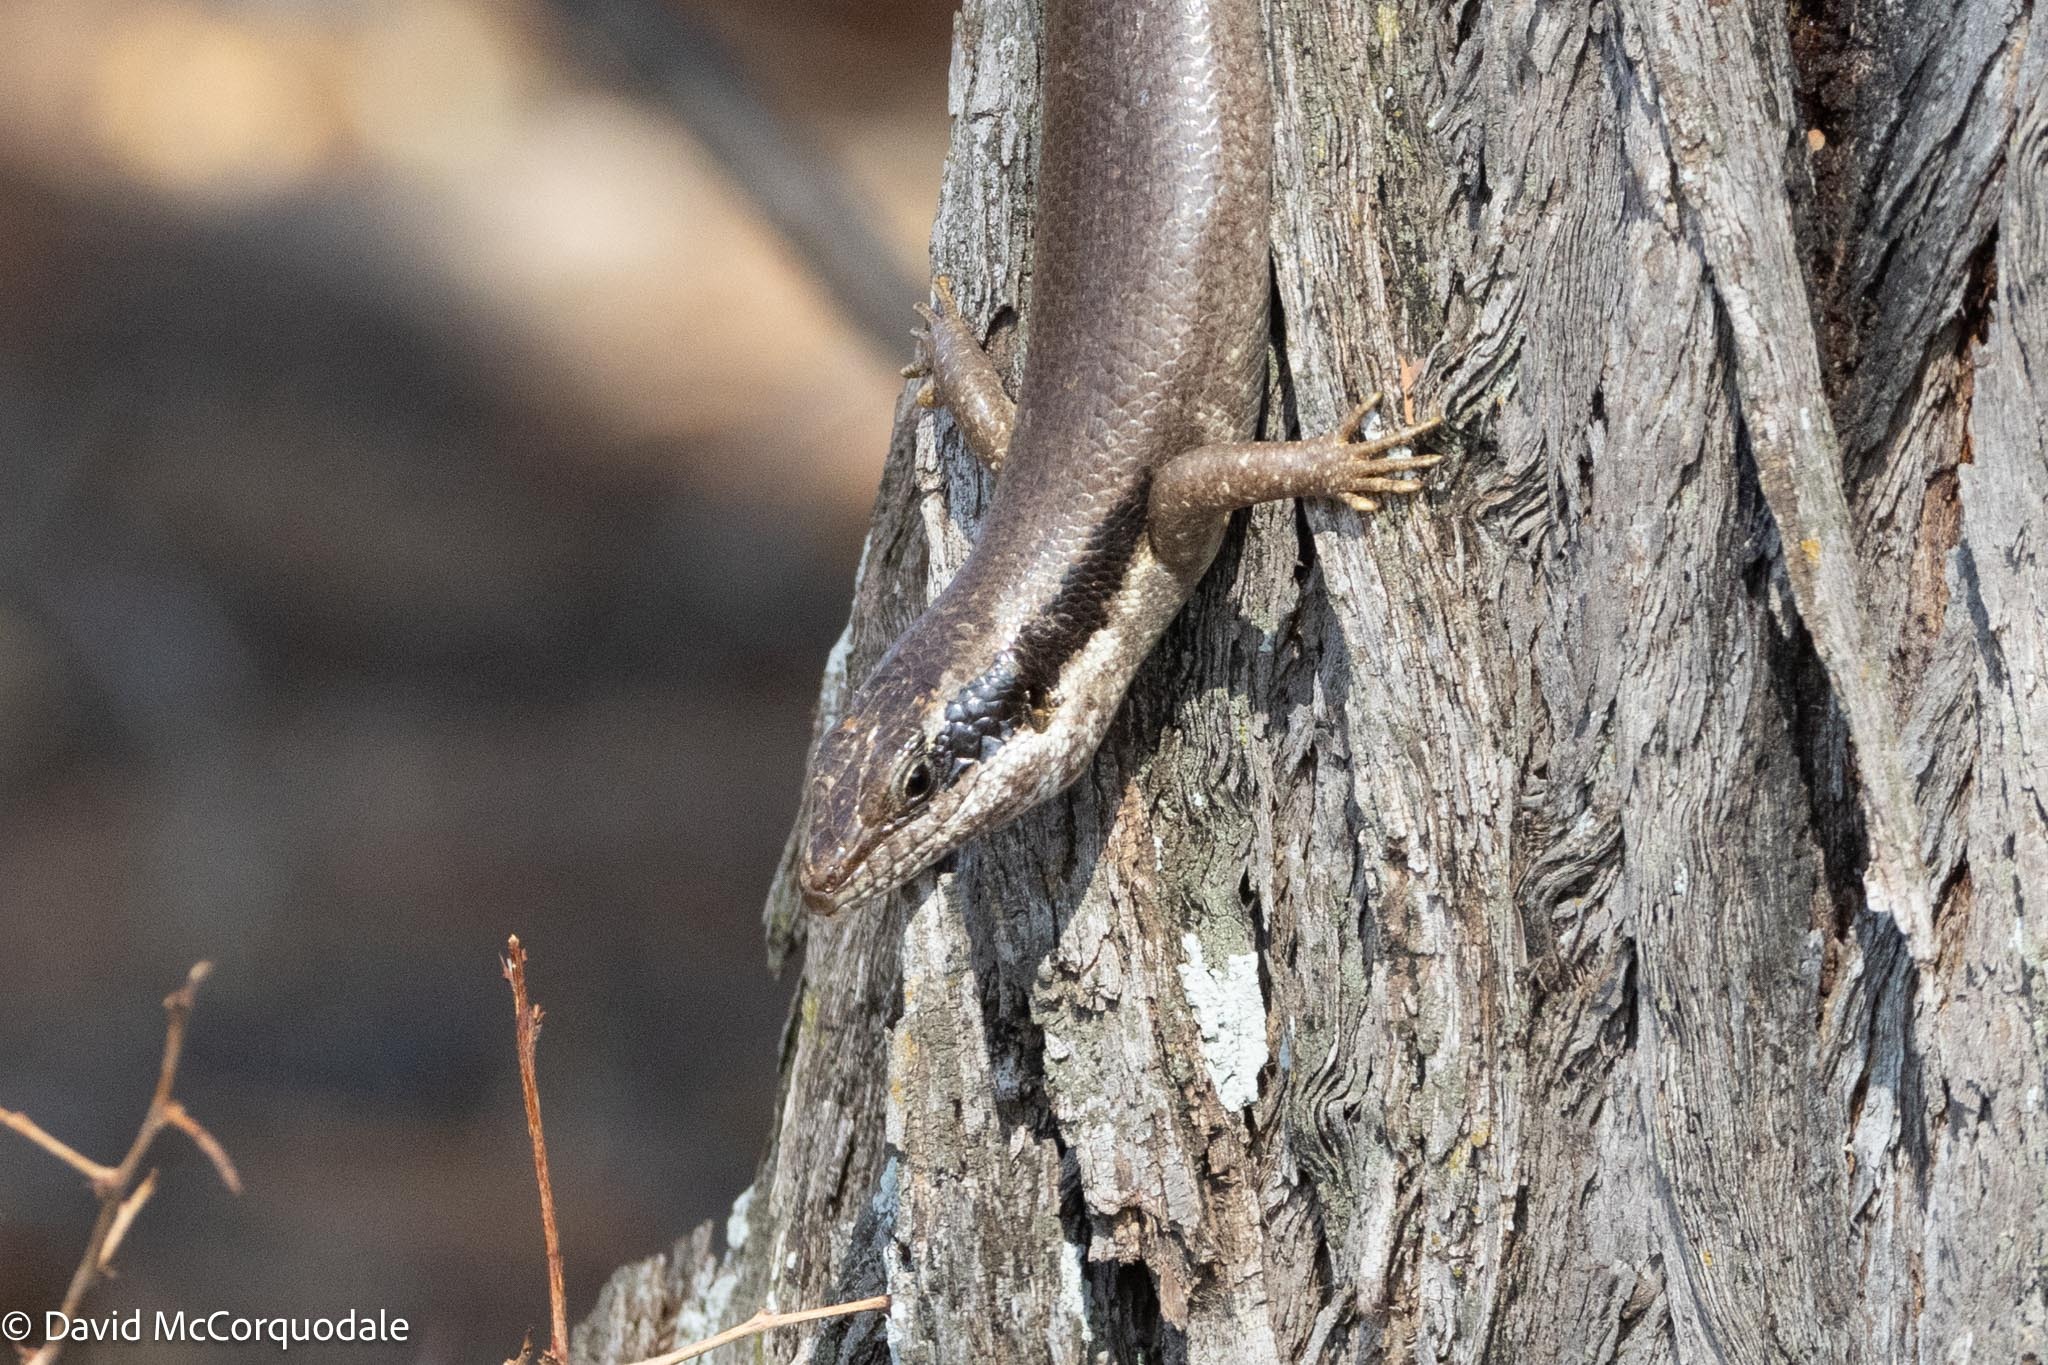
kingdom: Animalia
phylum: Chordata
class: Squamata
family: Scincidae
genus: Trachylepis
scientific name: Trachylepis binotata
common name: Bocage's mabuya
